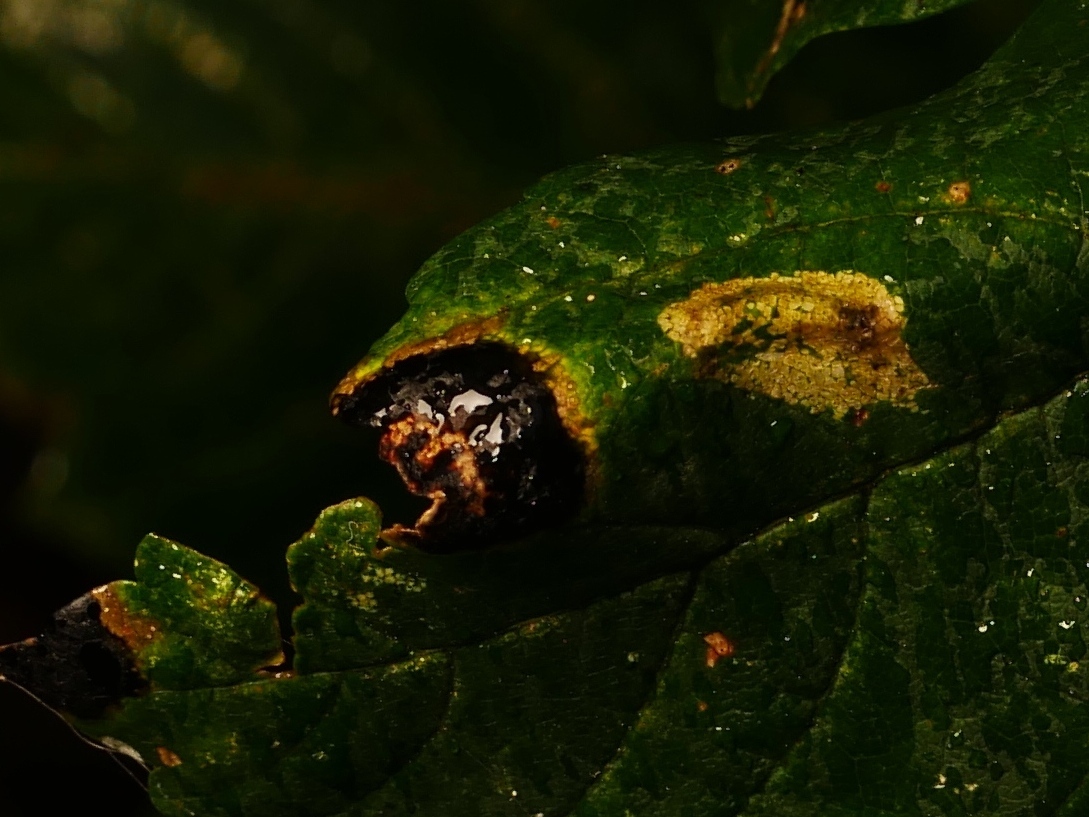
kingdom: Fungi
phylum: Ascomycota
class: Leotiomycetes
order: Rhytismatales
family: Rhytismataceae
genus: Rhytisma
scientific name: Rhytisma acerinum
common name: European tar spot
